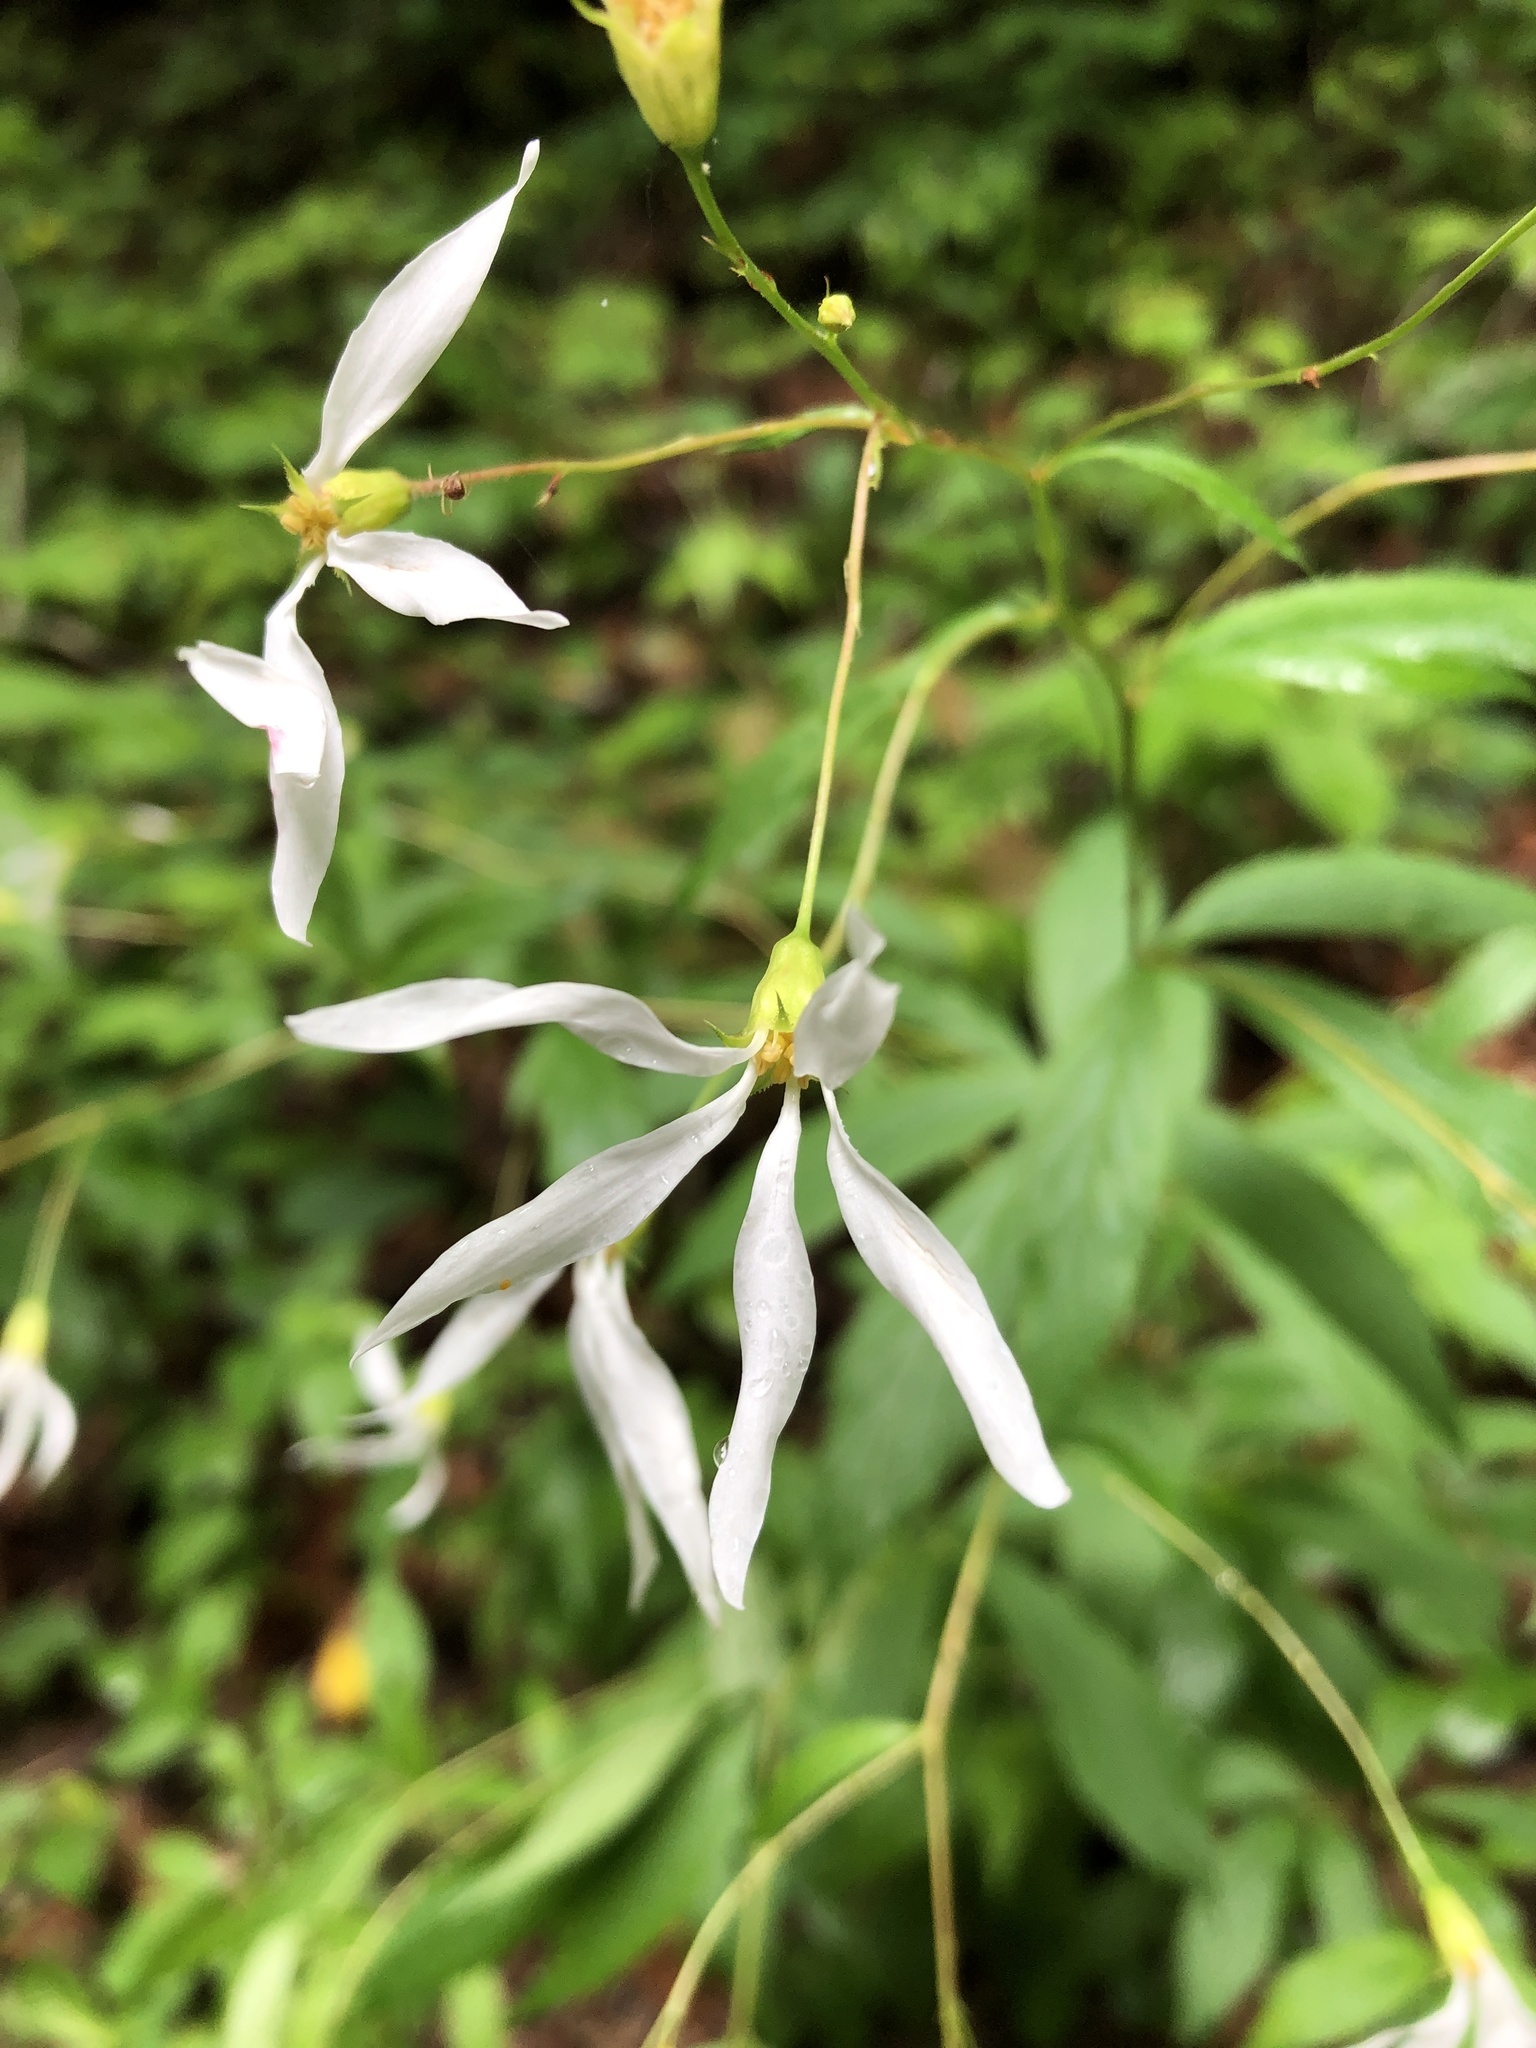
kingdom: Plantae
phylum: Tracheophyta
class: Magnoliopsida
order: Rosales
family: Rosaceae
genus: Gillenia
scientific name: Gillenia trifoliata
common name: Bowman's-root
